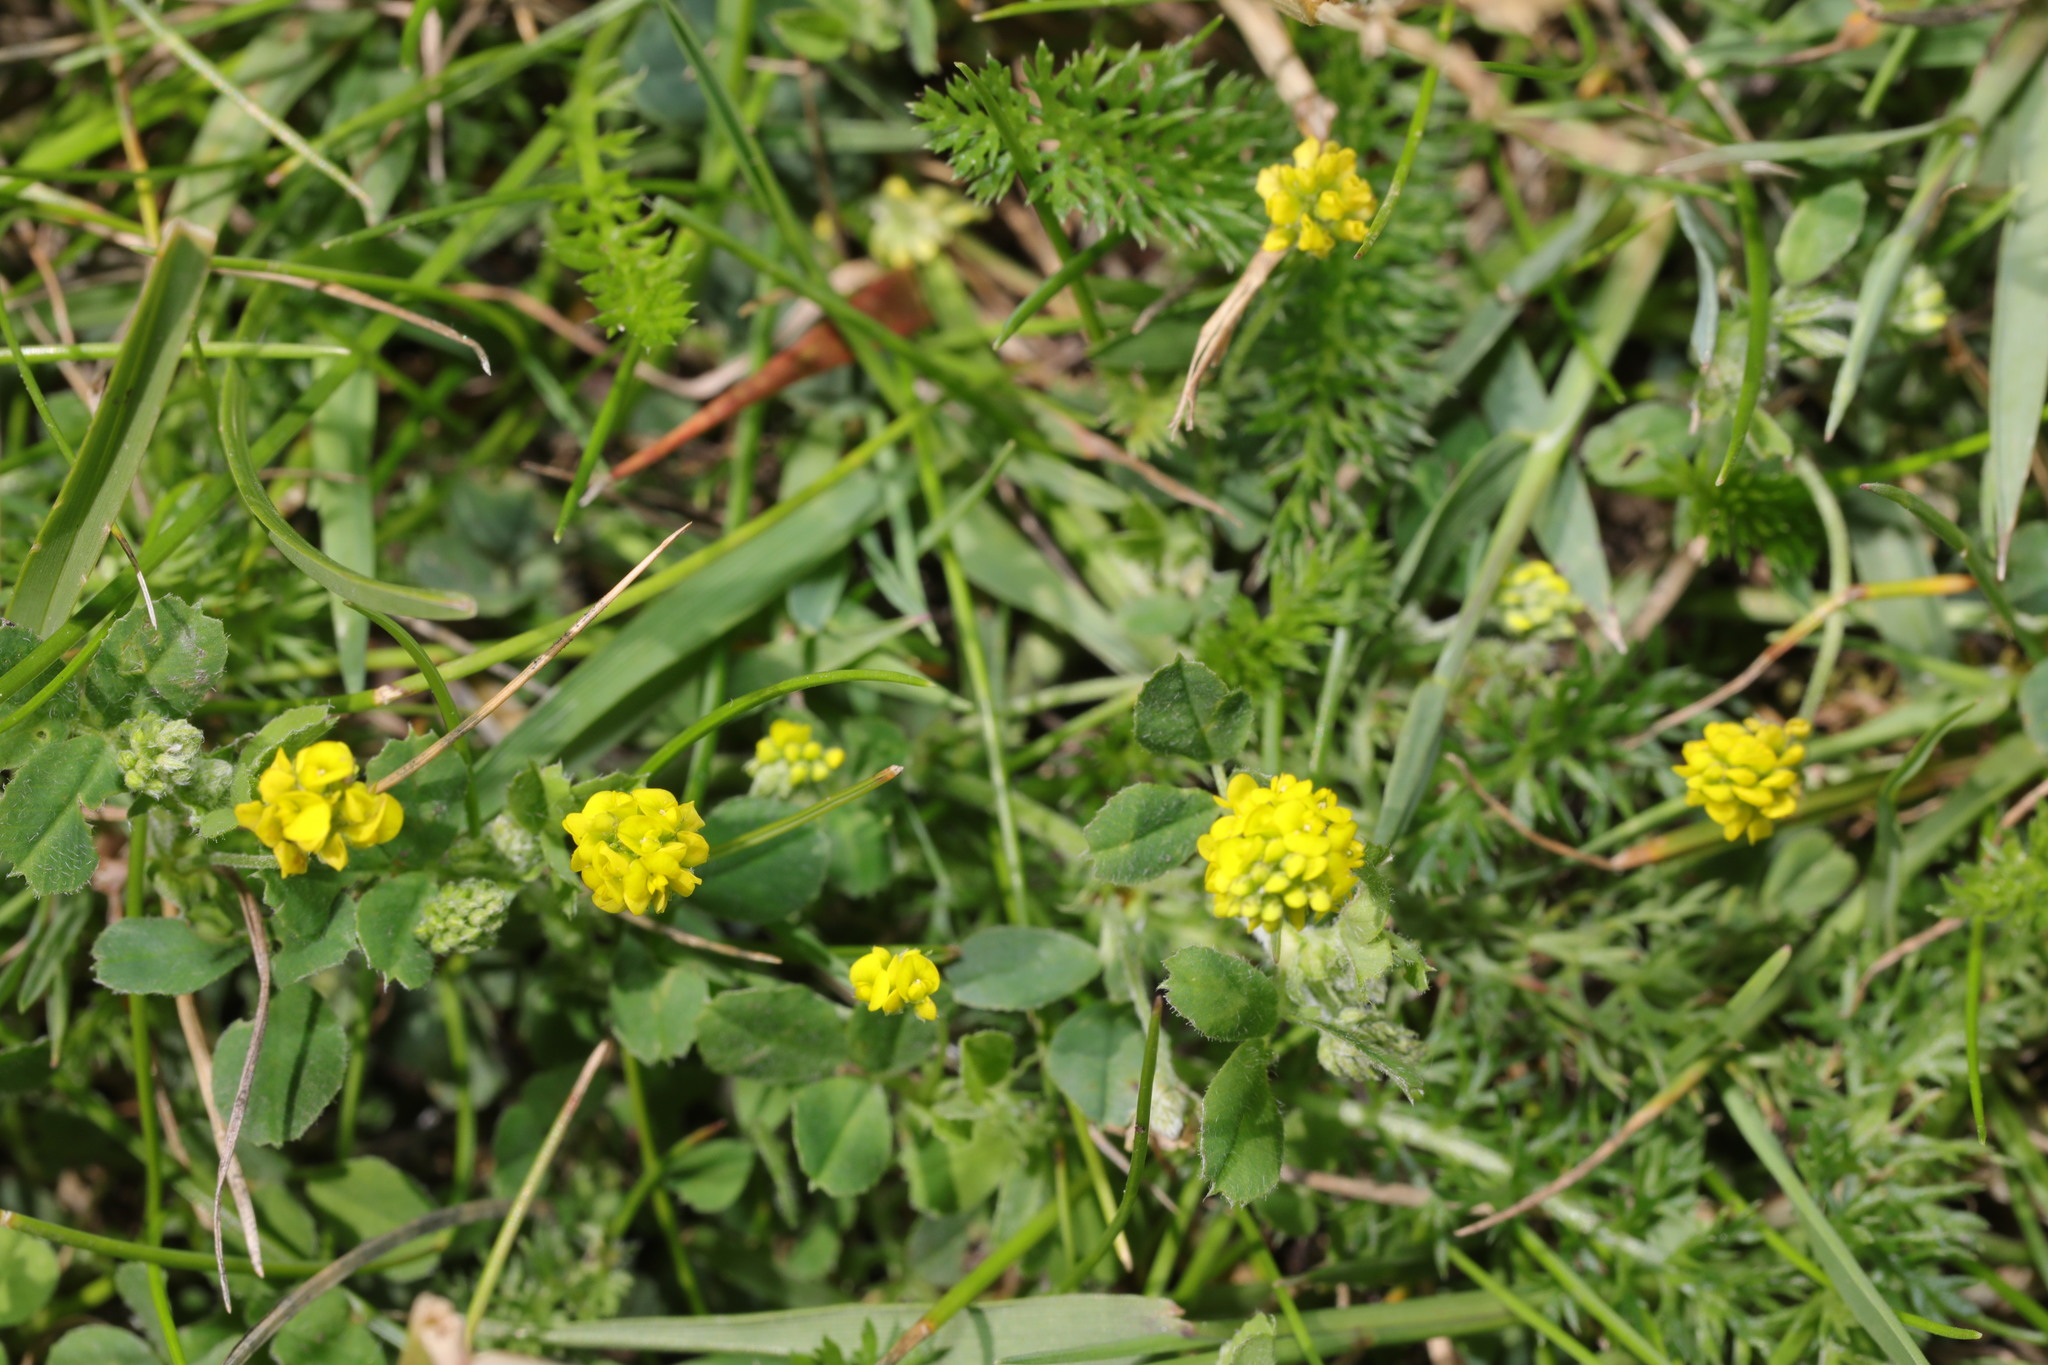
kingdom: Plantae
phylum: Tracheophyta
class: Magnoliopsida
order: Fabales
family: Fabaceae
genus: Medicago
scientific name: Medicago lupulina
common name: Black medick
